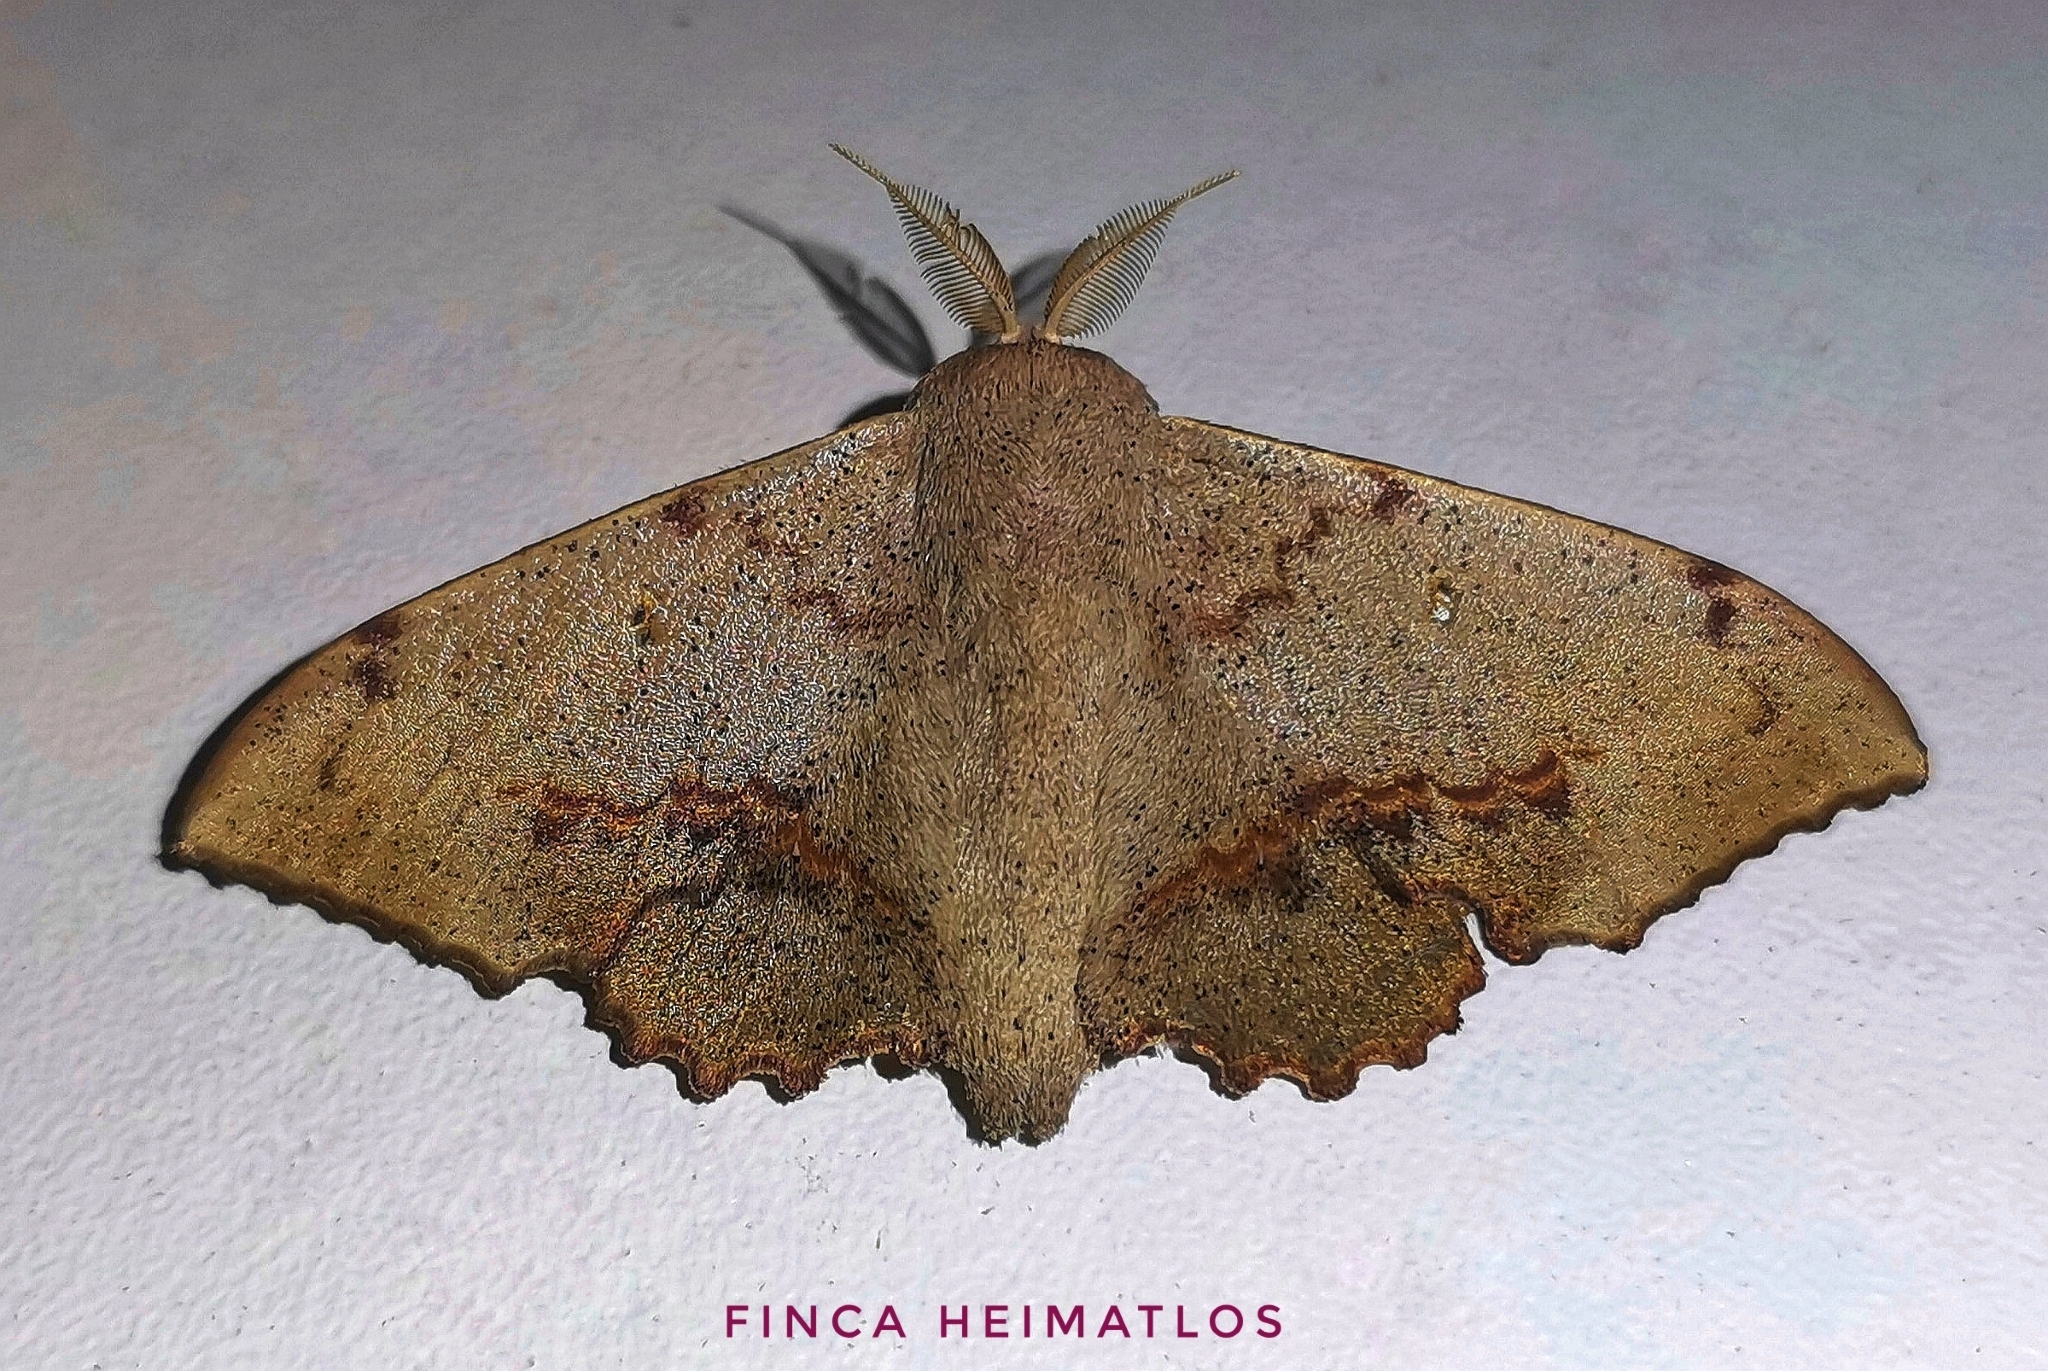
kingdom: Animalia
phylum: Arthropoda
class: Insecta
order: Lepidoptera
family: Mimallonidae
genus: Mimallo
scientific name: Mimallo brosica
